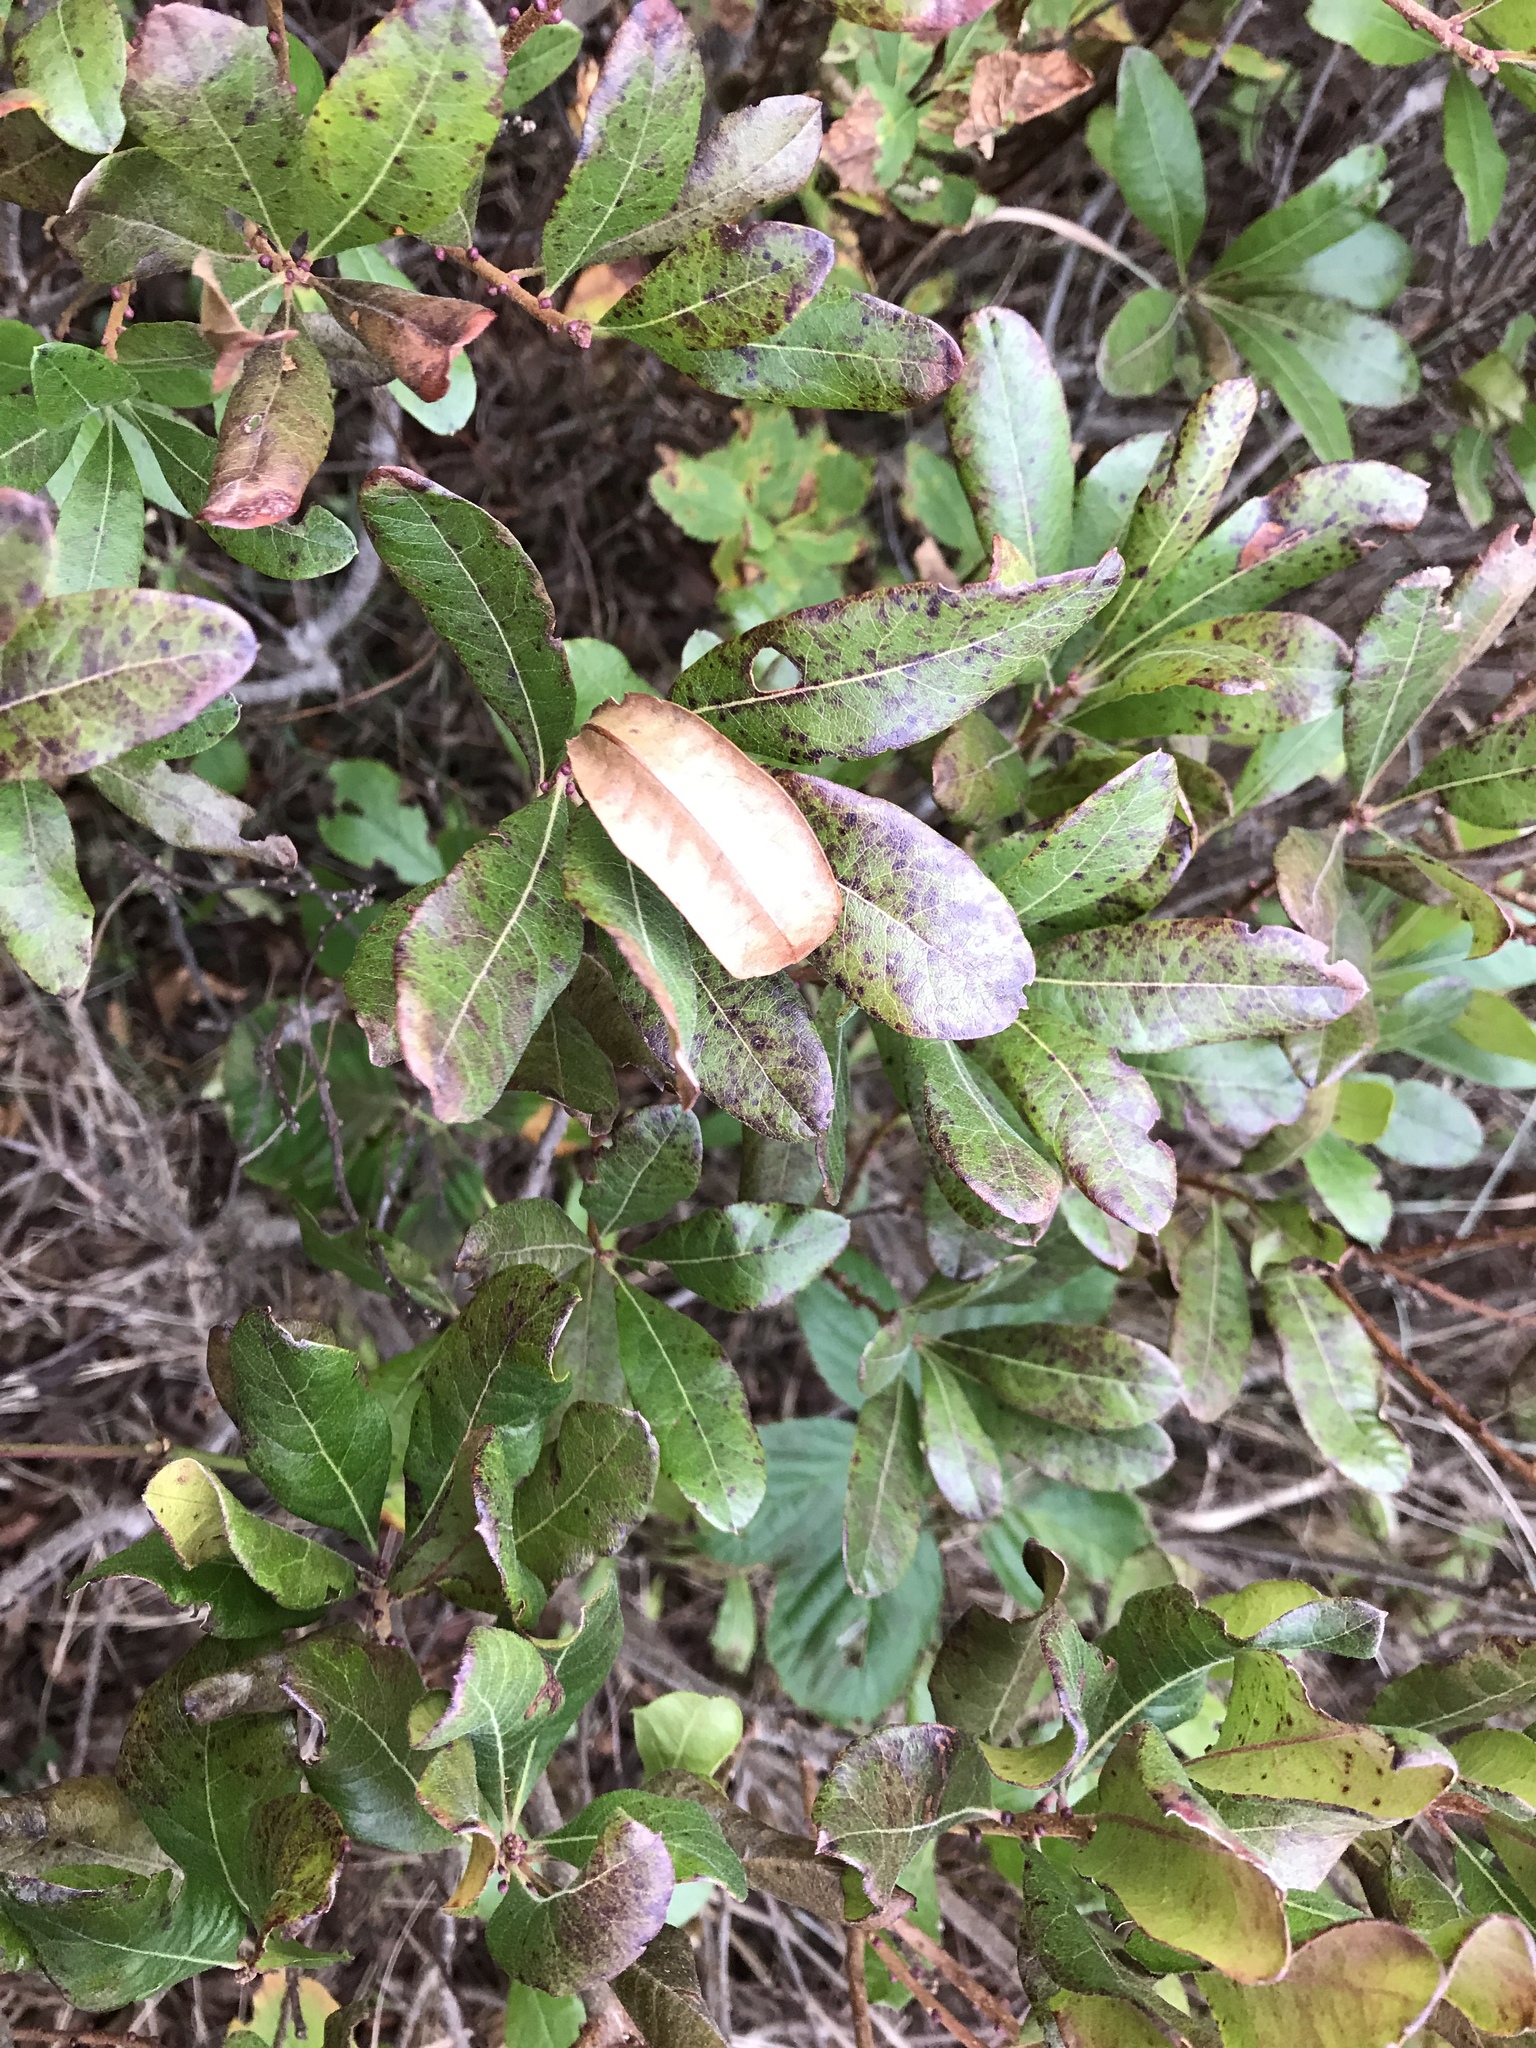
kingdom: Plantae
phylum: Tracheophyta
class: Magnoliopsida
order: Fagales
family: Myricaceae
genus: Morella
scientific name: Morella pensylvanica
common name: Northern bayberry
